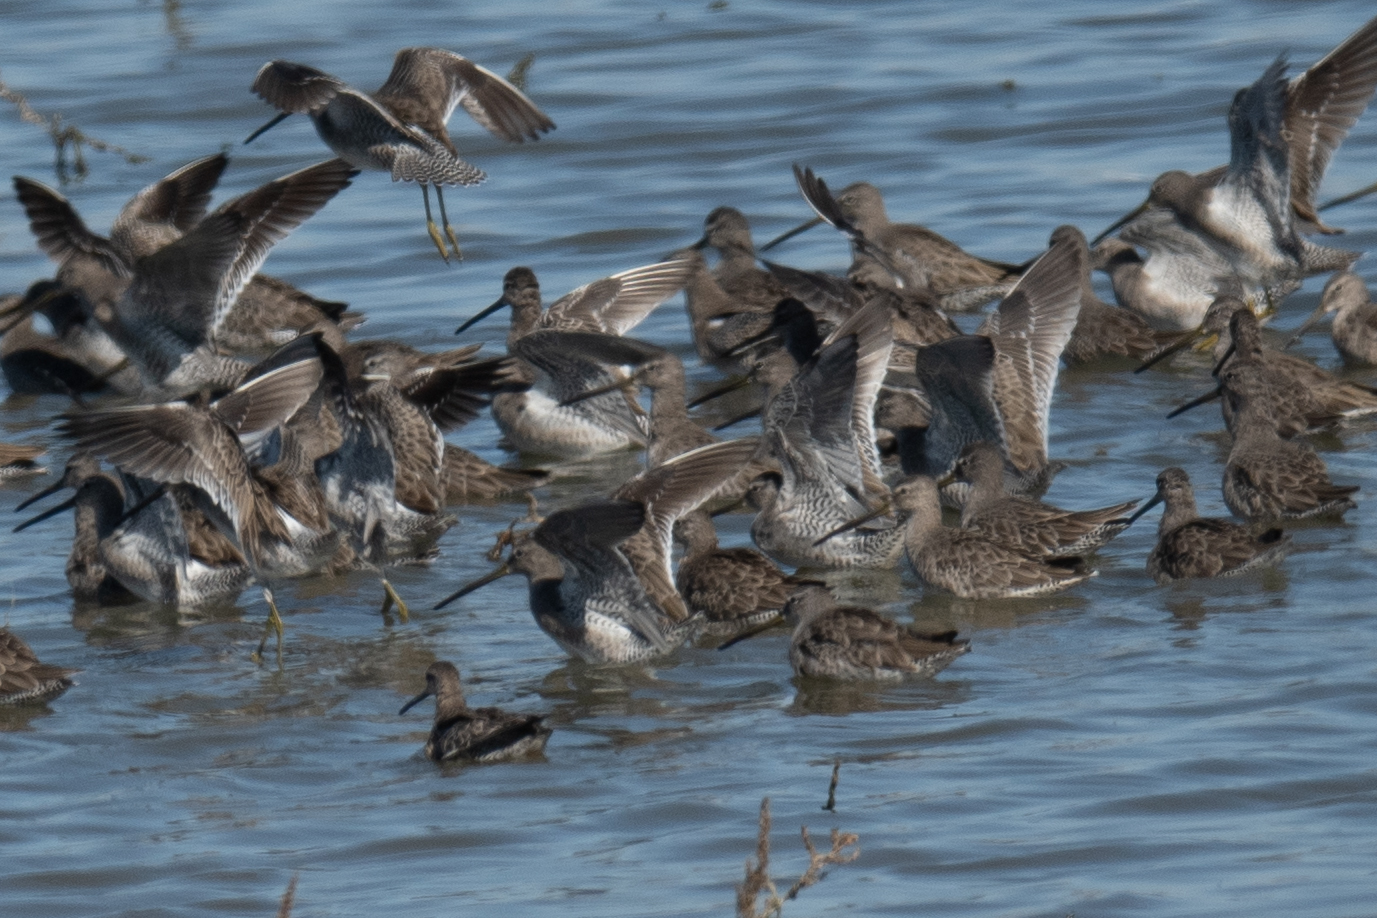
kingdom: Animalia
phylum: Chordata
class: Aves
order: Charadriiformes
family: Scolopacidae
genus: Limnodromus
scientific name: Limnodromus scolopaceus
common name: Long-billed dowitcher
